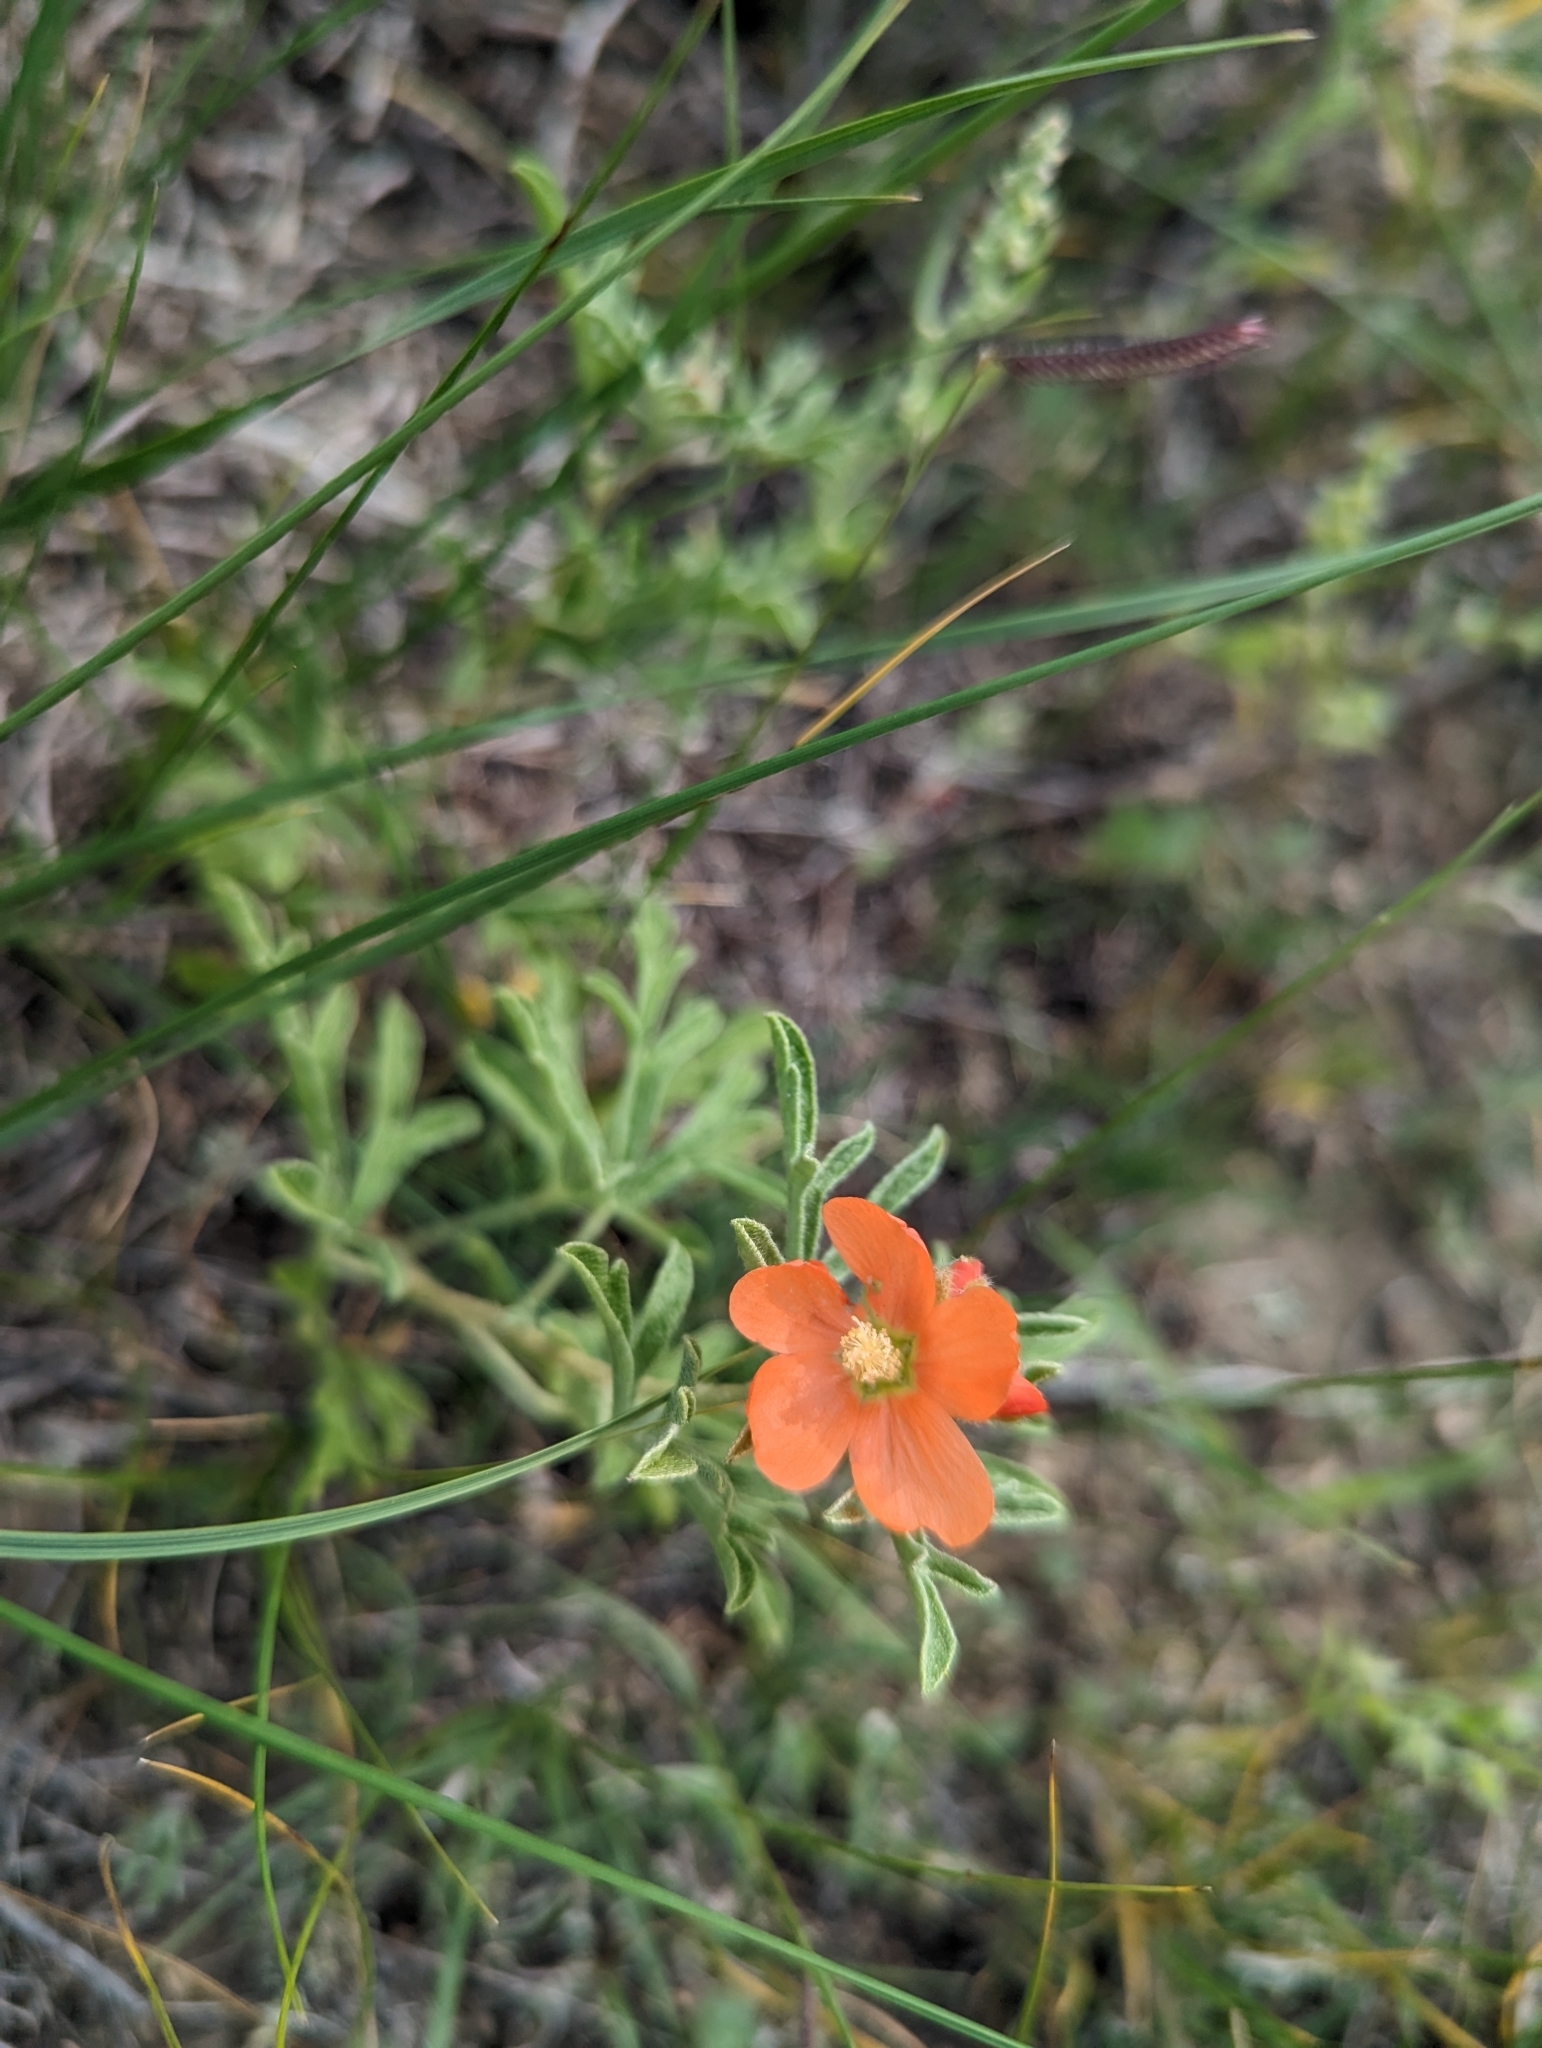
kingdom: Plantae
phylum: Tracheophyta
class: Magnoliopsida
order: Malvales
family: Malvaceae
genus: Sphaeralcea
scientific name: Sphaeralcea coccinea
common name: Moss-rose
